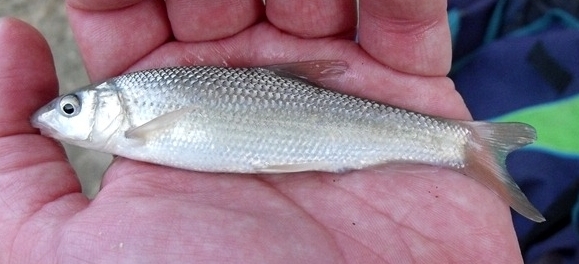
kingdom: Animalia
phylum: Chordata
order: Cypriniformes
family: Cyprinidae
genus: Luciobarbus
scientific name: Luciobarbus graellsii
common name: Ebro barbel
